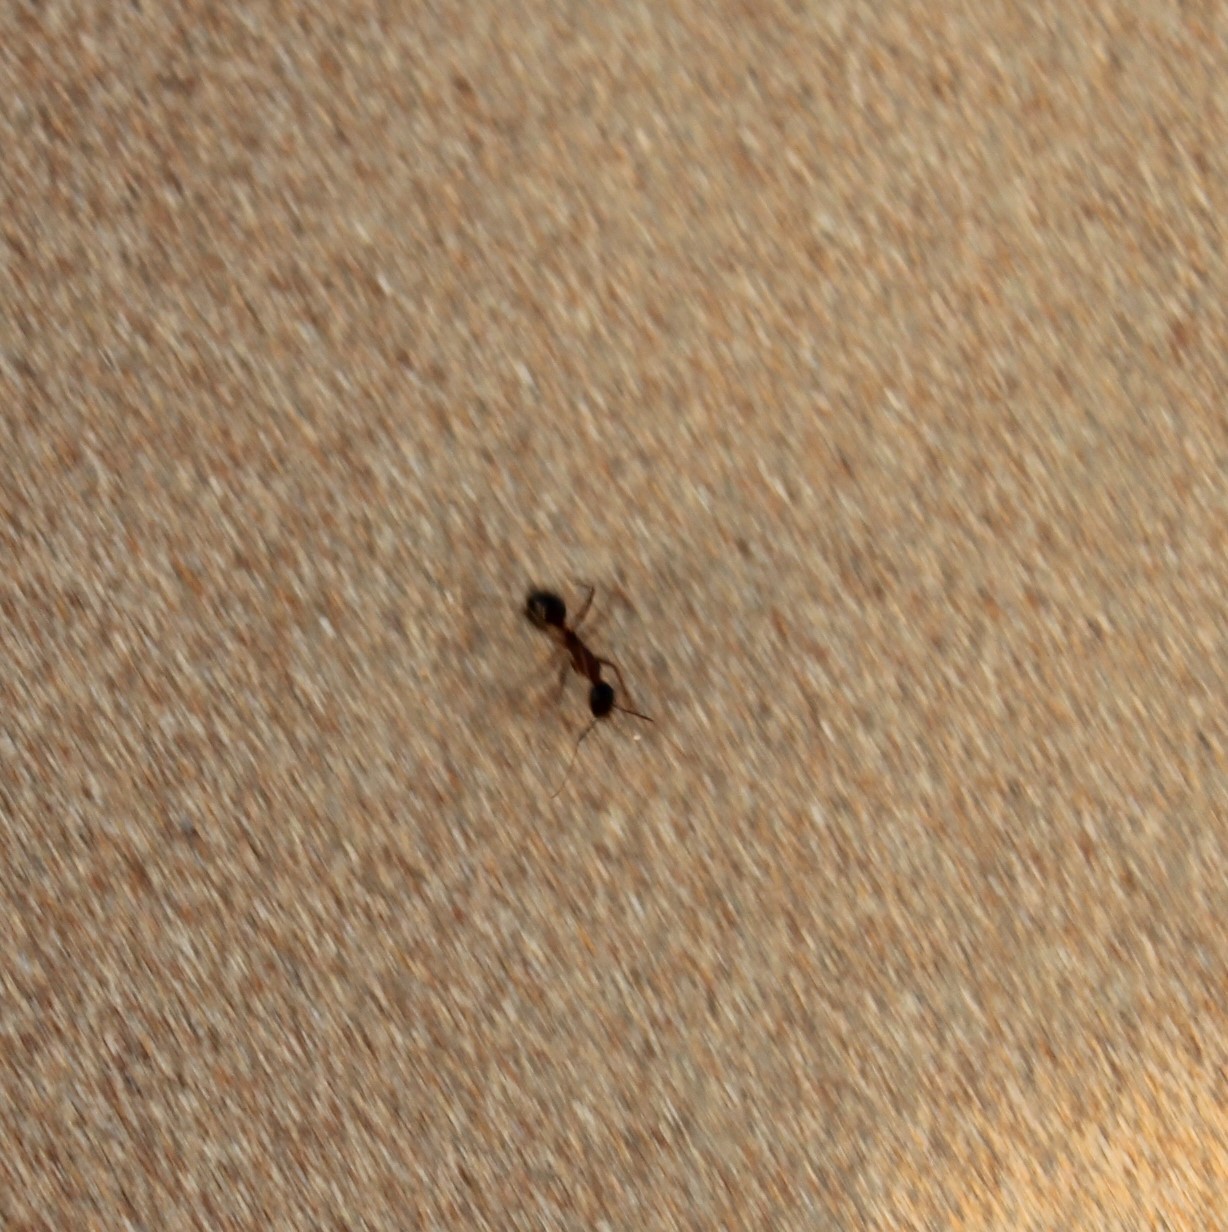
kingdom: Animalia
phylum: Arthropoda
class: Insecta
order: Hymenoptera
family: Formicidae
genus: Camponotus
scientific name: Camponotus xerxes
